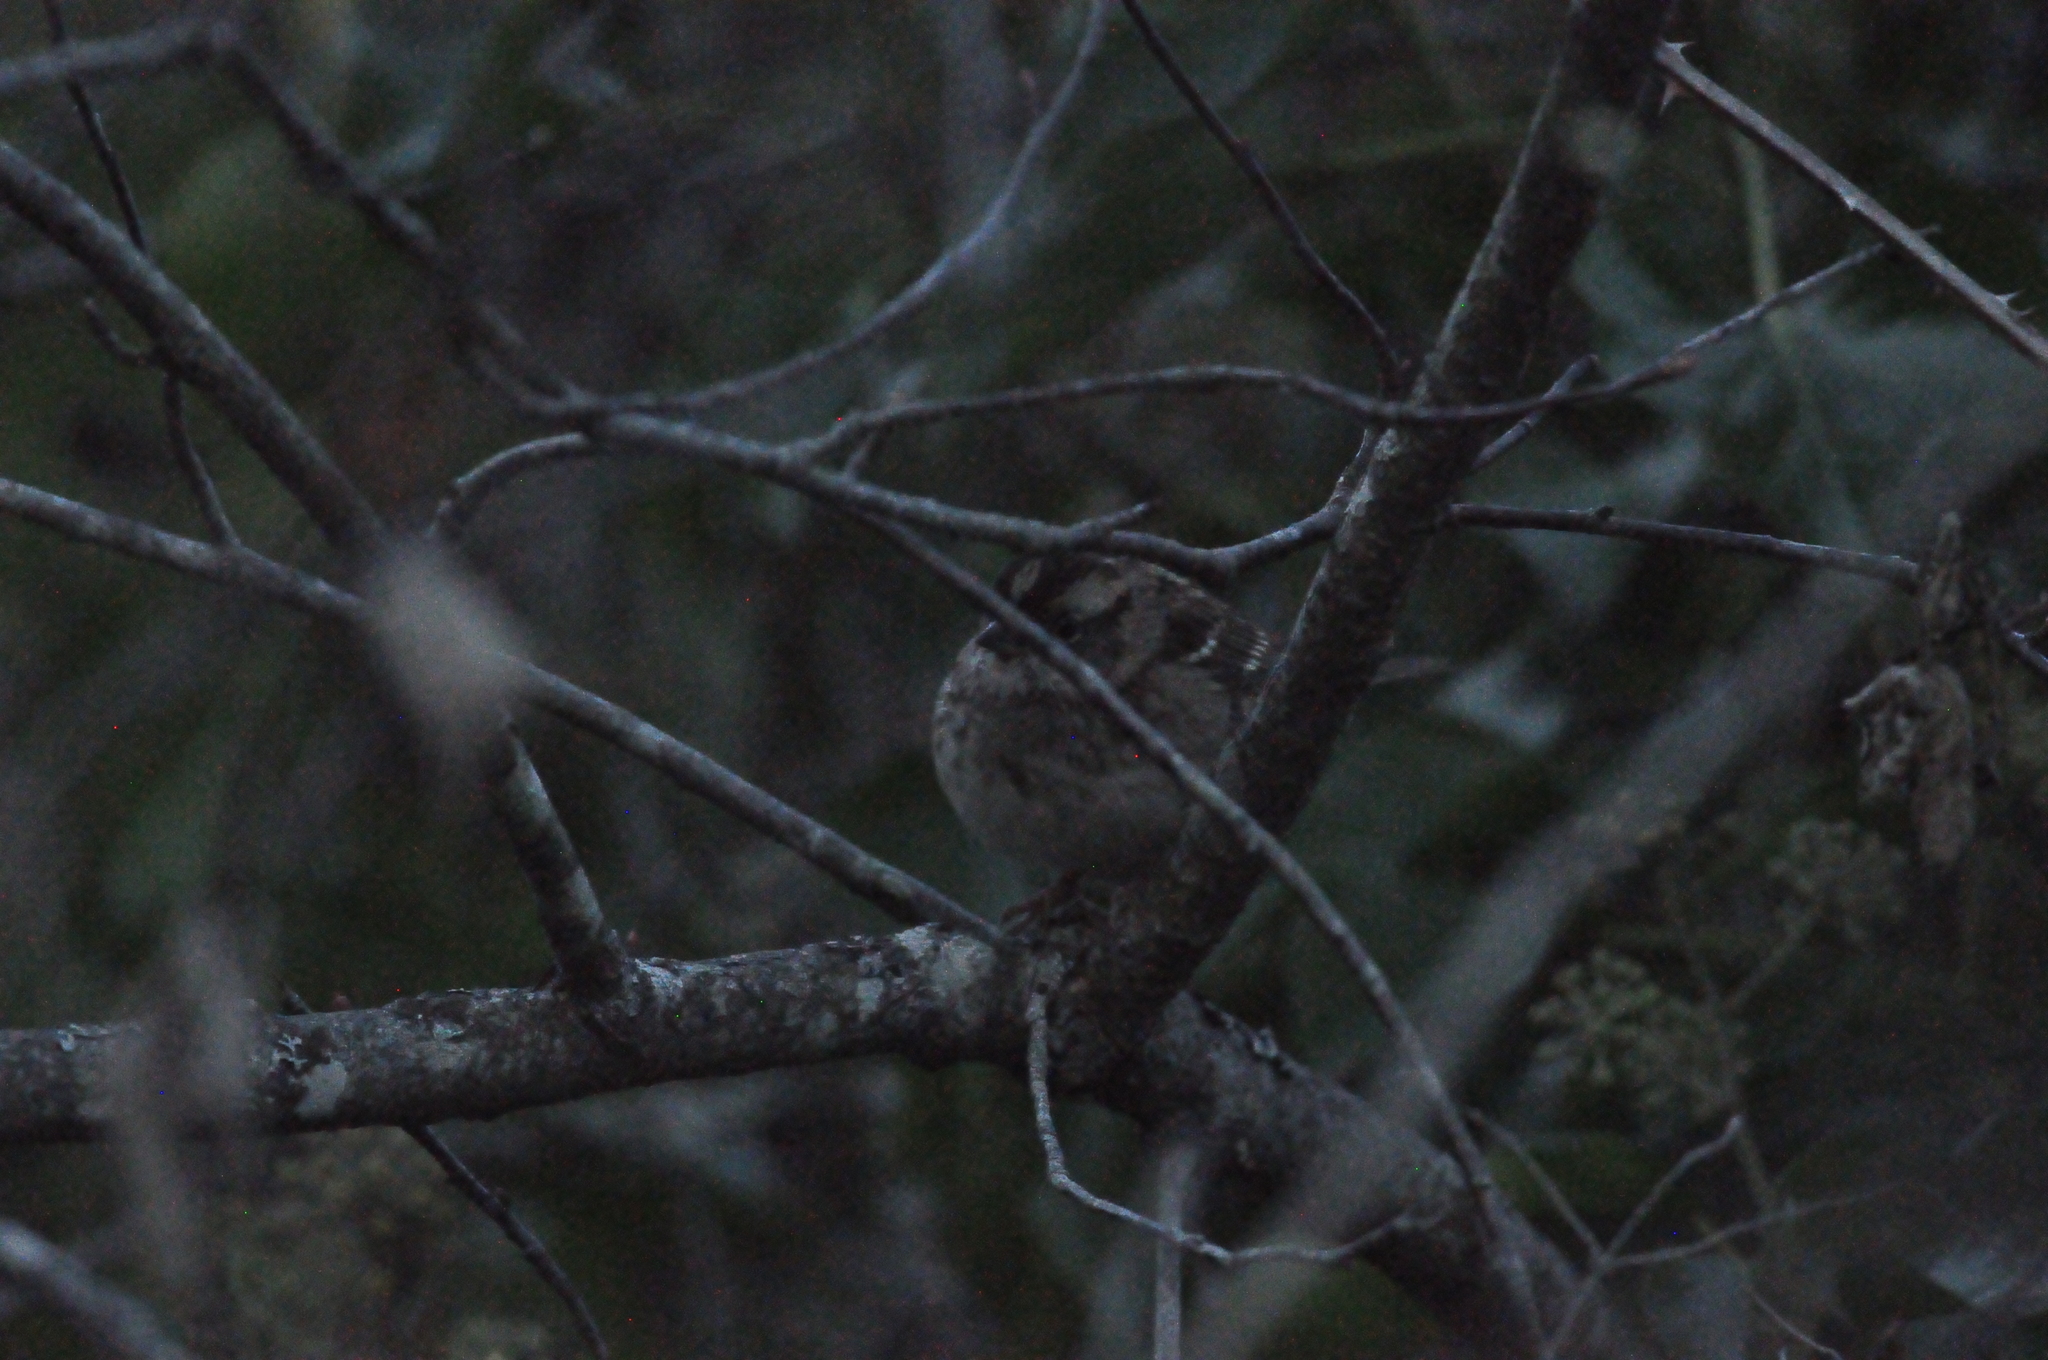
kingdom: Animalia
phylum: Chordata
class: Aves
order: Passeriformes
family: Passerellidae
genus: Zonotrichia
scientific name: Zonotrichia albicollis
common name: White-throated sparrow
